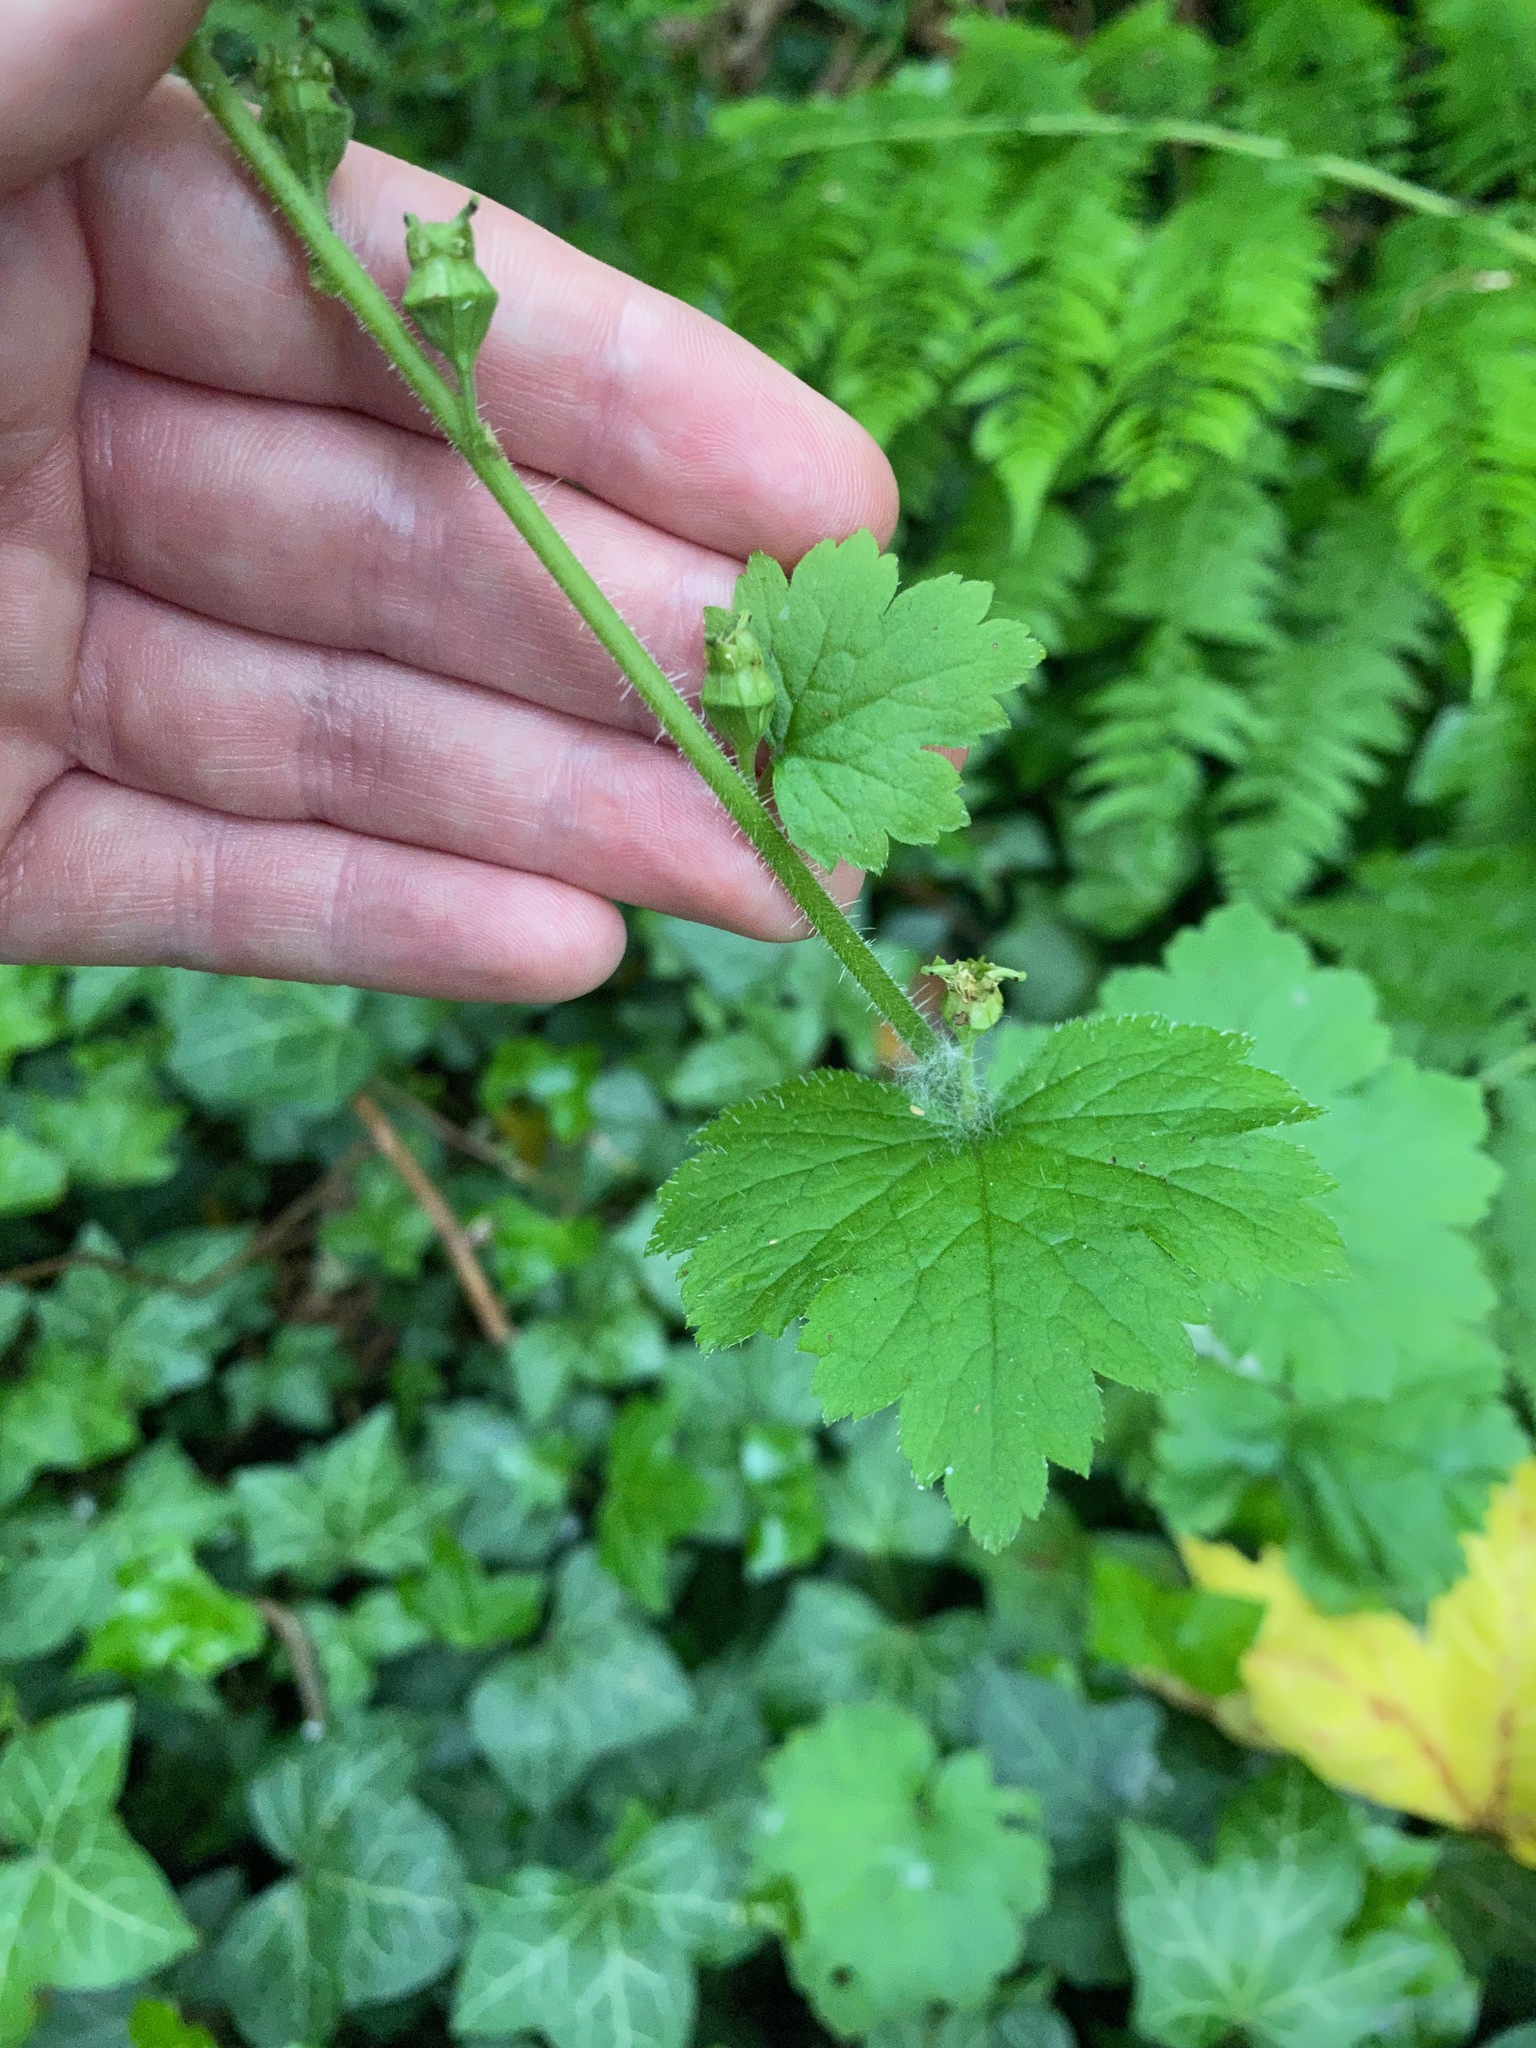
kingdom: Plantae
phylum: Tracheophyta
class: Magnoliopsida
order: Saxifragales
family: Saxifragaceae
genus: Tellima
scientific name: Tellima grandiflora
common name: Fringecups
